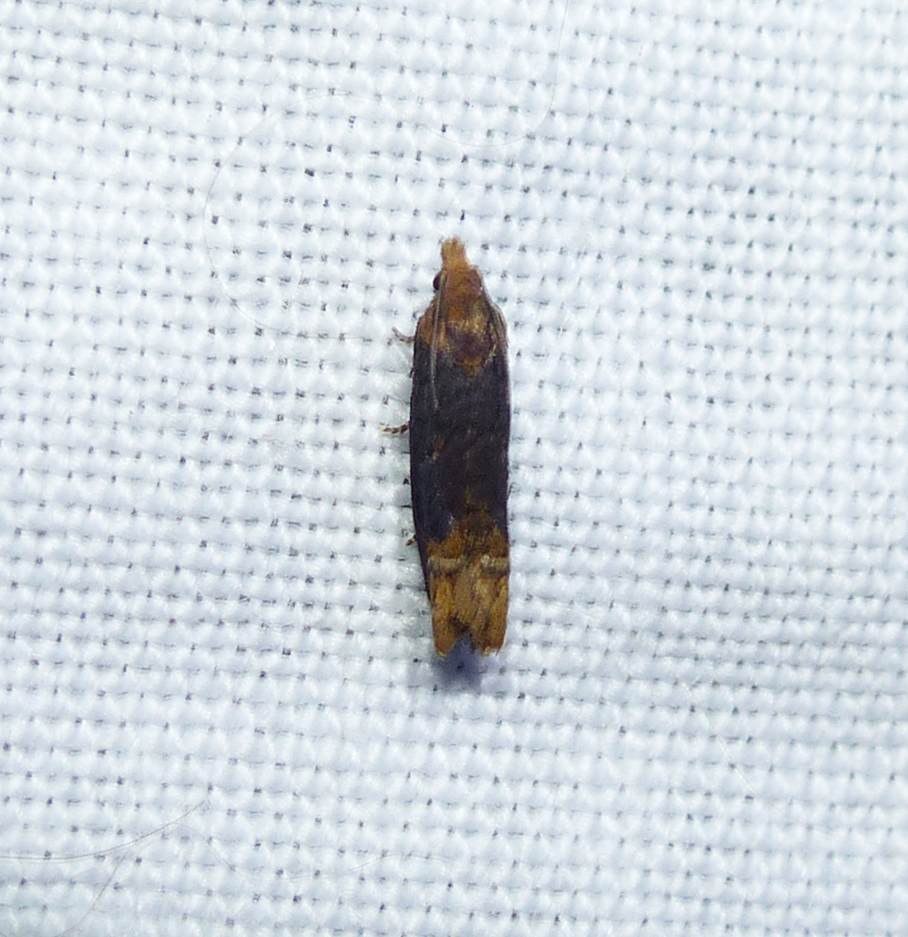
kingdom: Animalia
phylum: Arthropoda
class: Insecta
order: Lepidoptera
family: Tortricidae
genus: Eucosma
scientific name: Eucosma ochroterminana
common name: Buff-tipped eucosma moth
